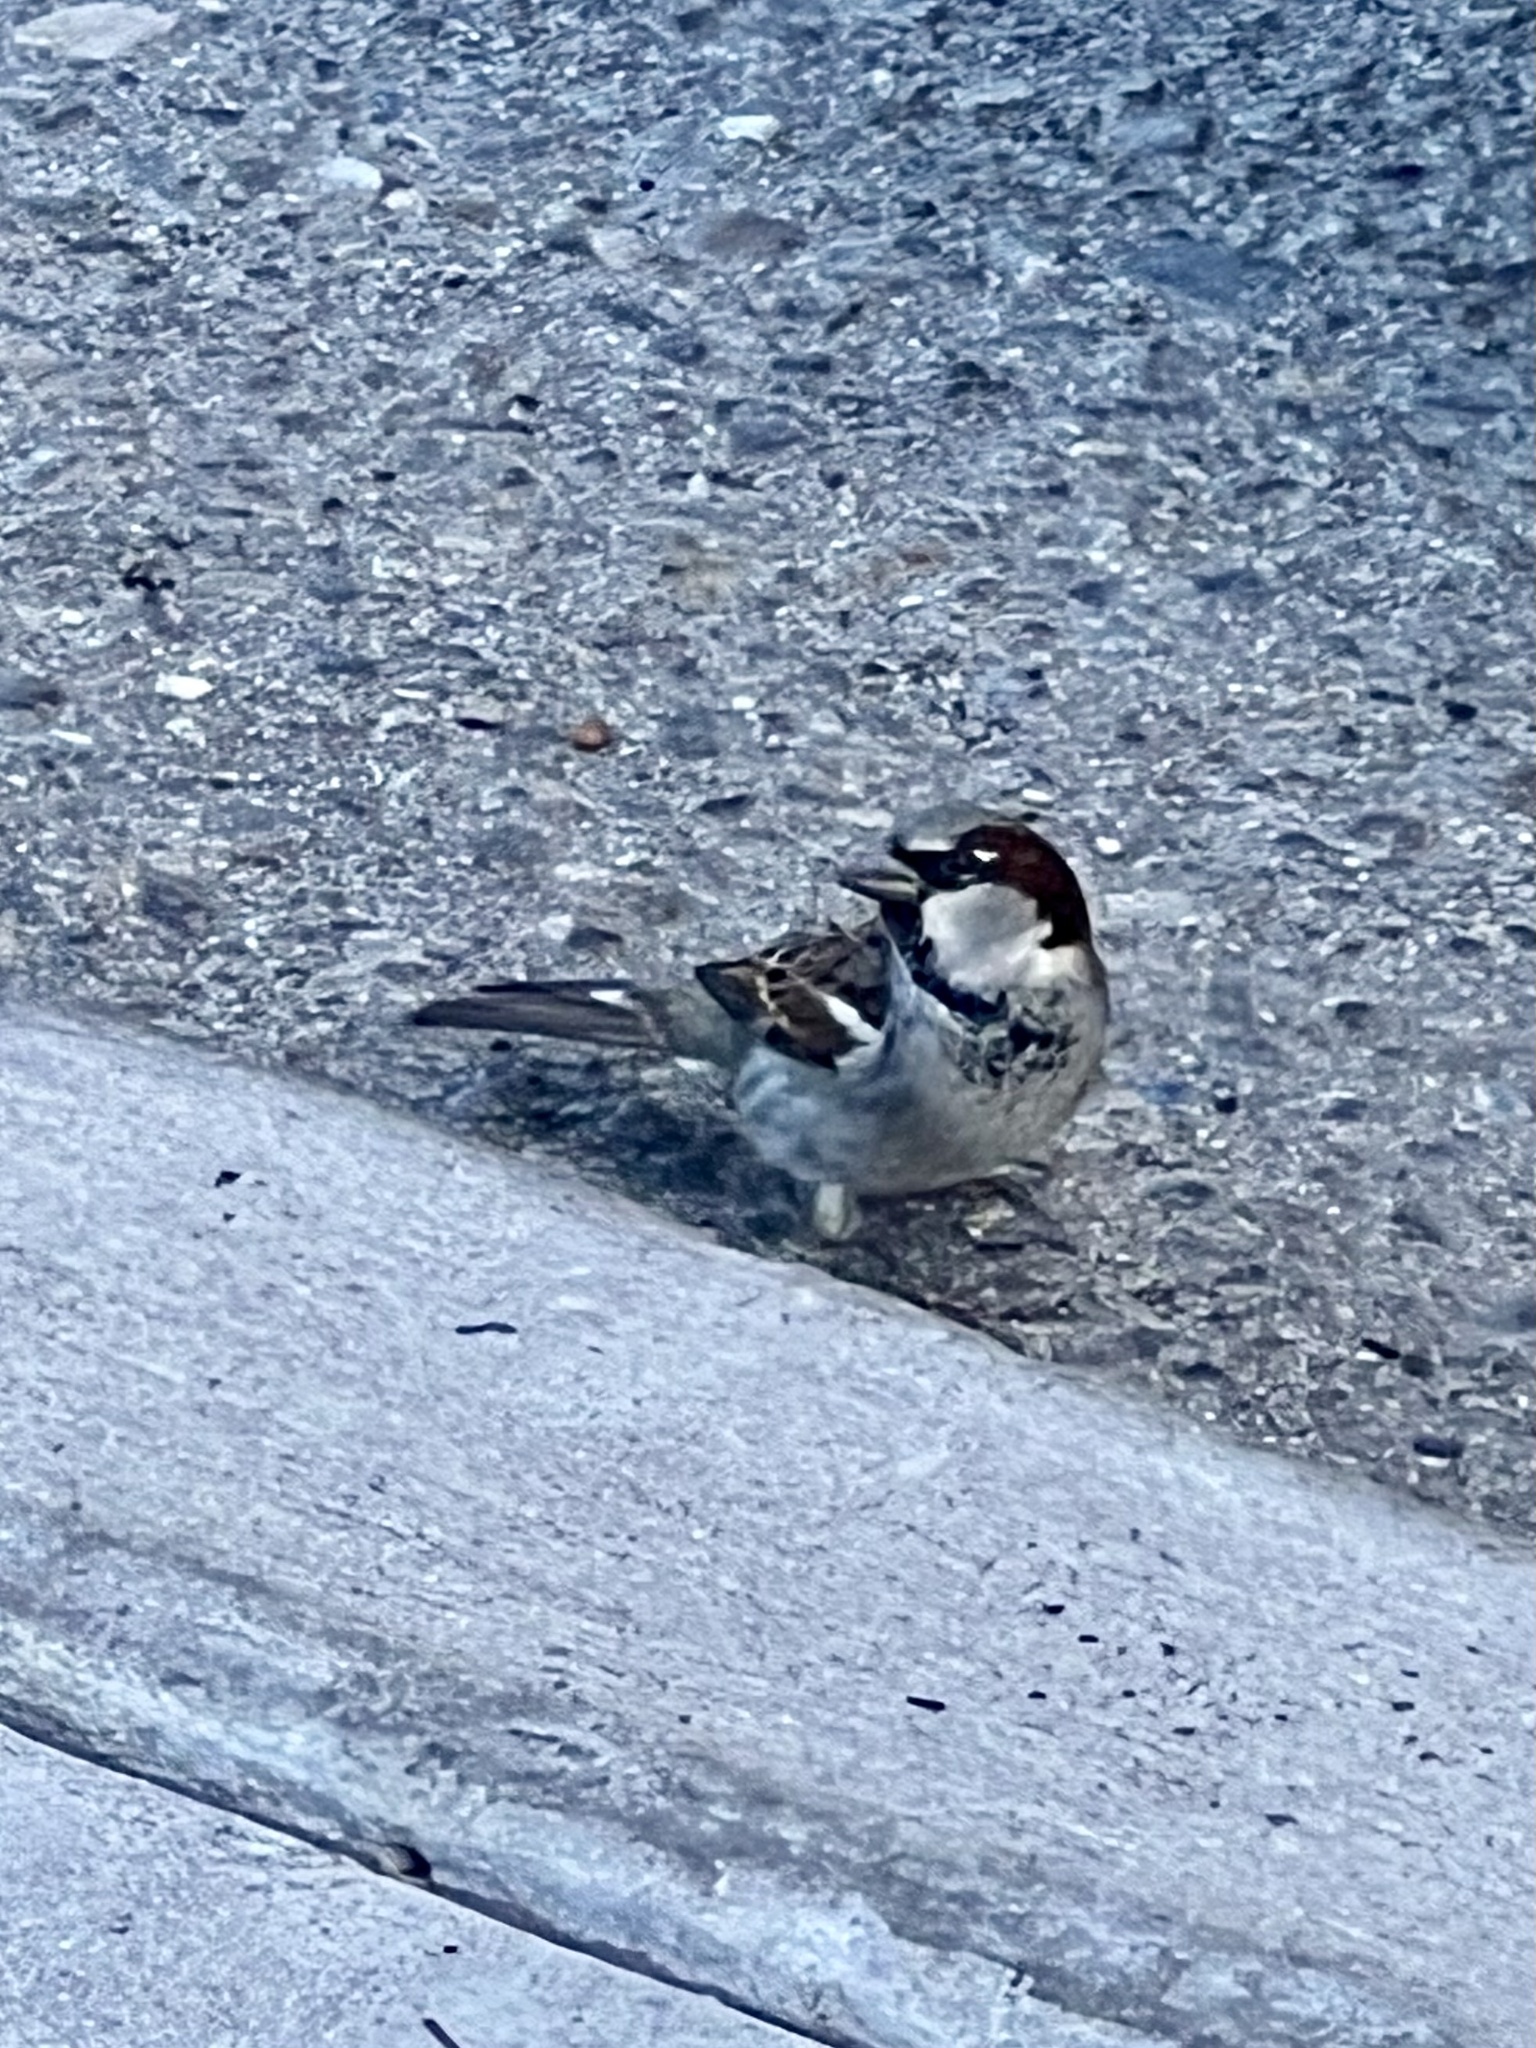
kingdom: Animalia
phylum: Chordata
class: Aves
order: Passeriformes
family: Passeridae
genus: Passer
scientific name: Passer domesticus
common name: House sparrow
